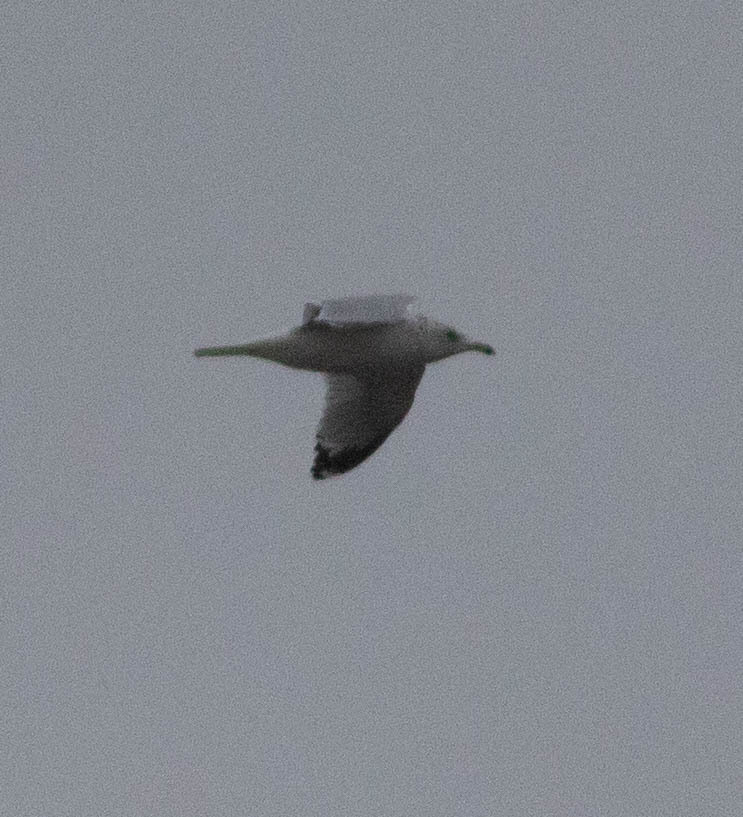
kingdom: Animalia
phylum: Chordata
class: Aves
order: Charadriiformes
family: Laridae
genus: Larus
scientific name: Larus delawarensis
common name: Ring-billed gull
